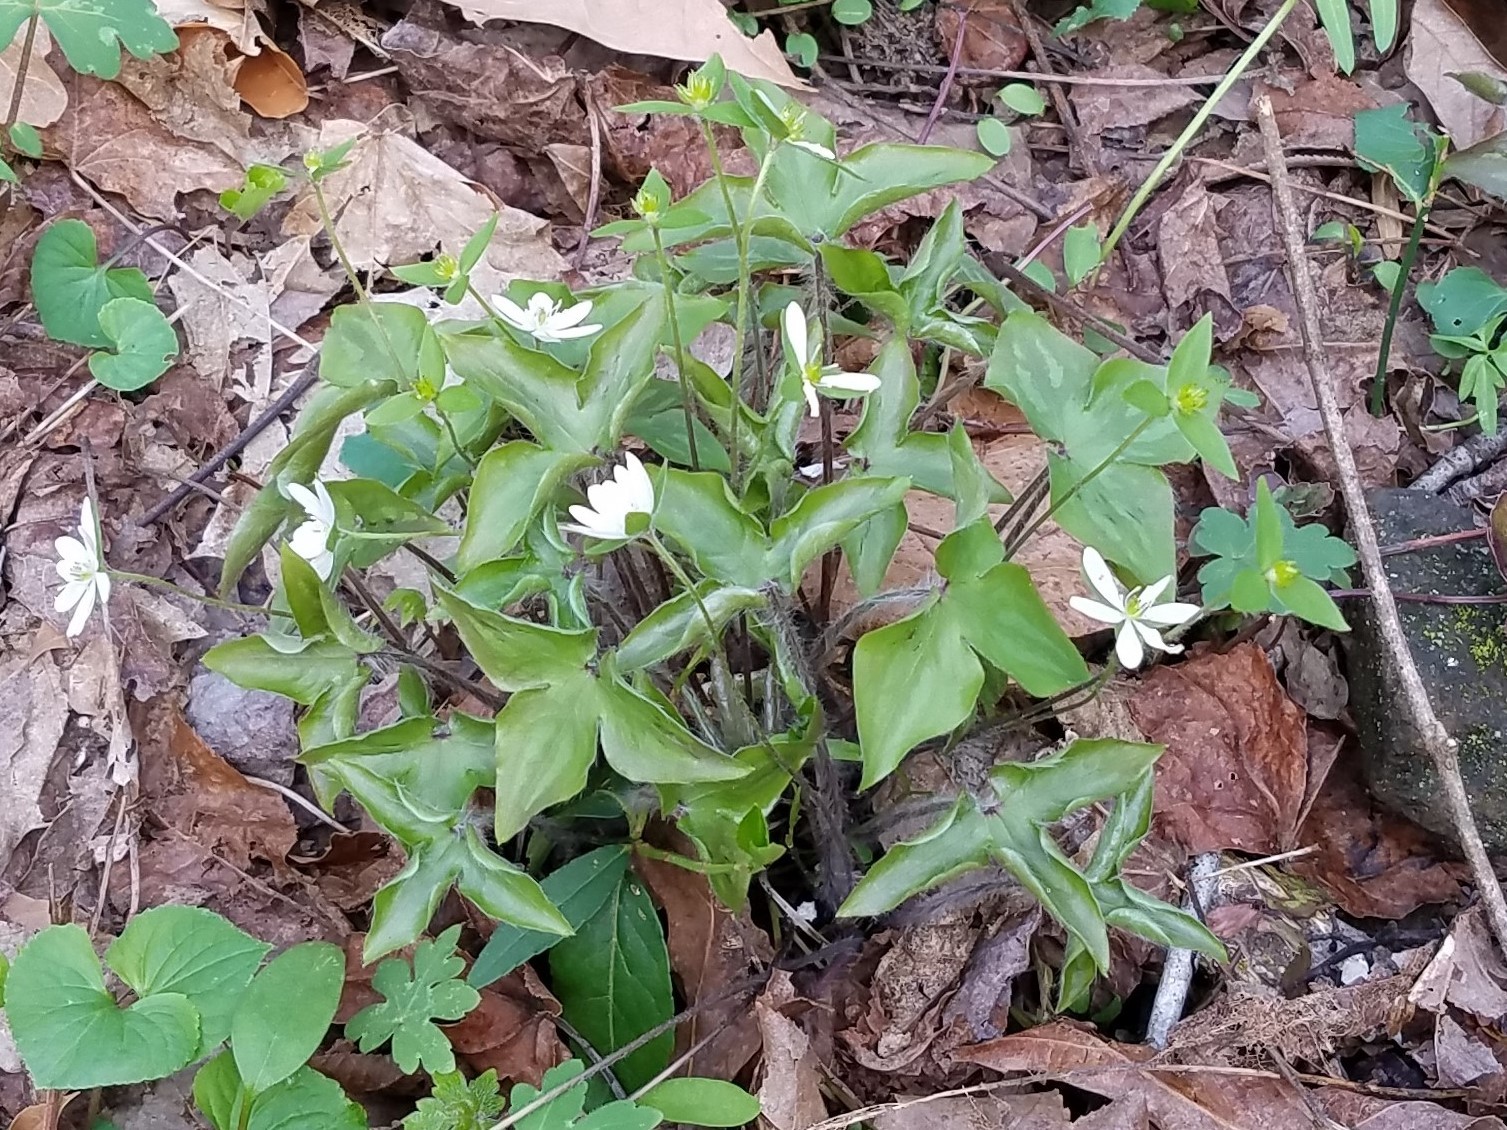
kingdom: Plantae
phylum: Tracheophyta
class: Magnoliopsida
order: Ranunculales
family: Ranunculaceae
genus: Hepatica
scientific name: Hepatica acutiloba
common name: Sharp-lobed hepatica
